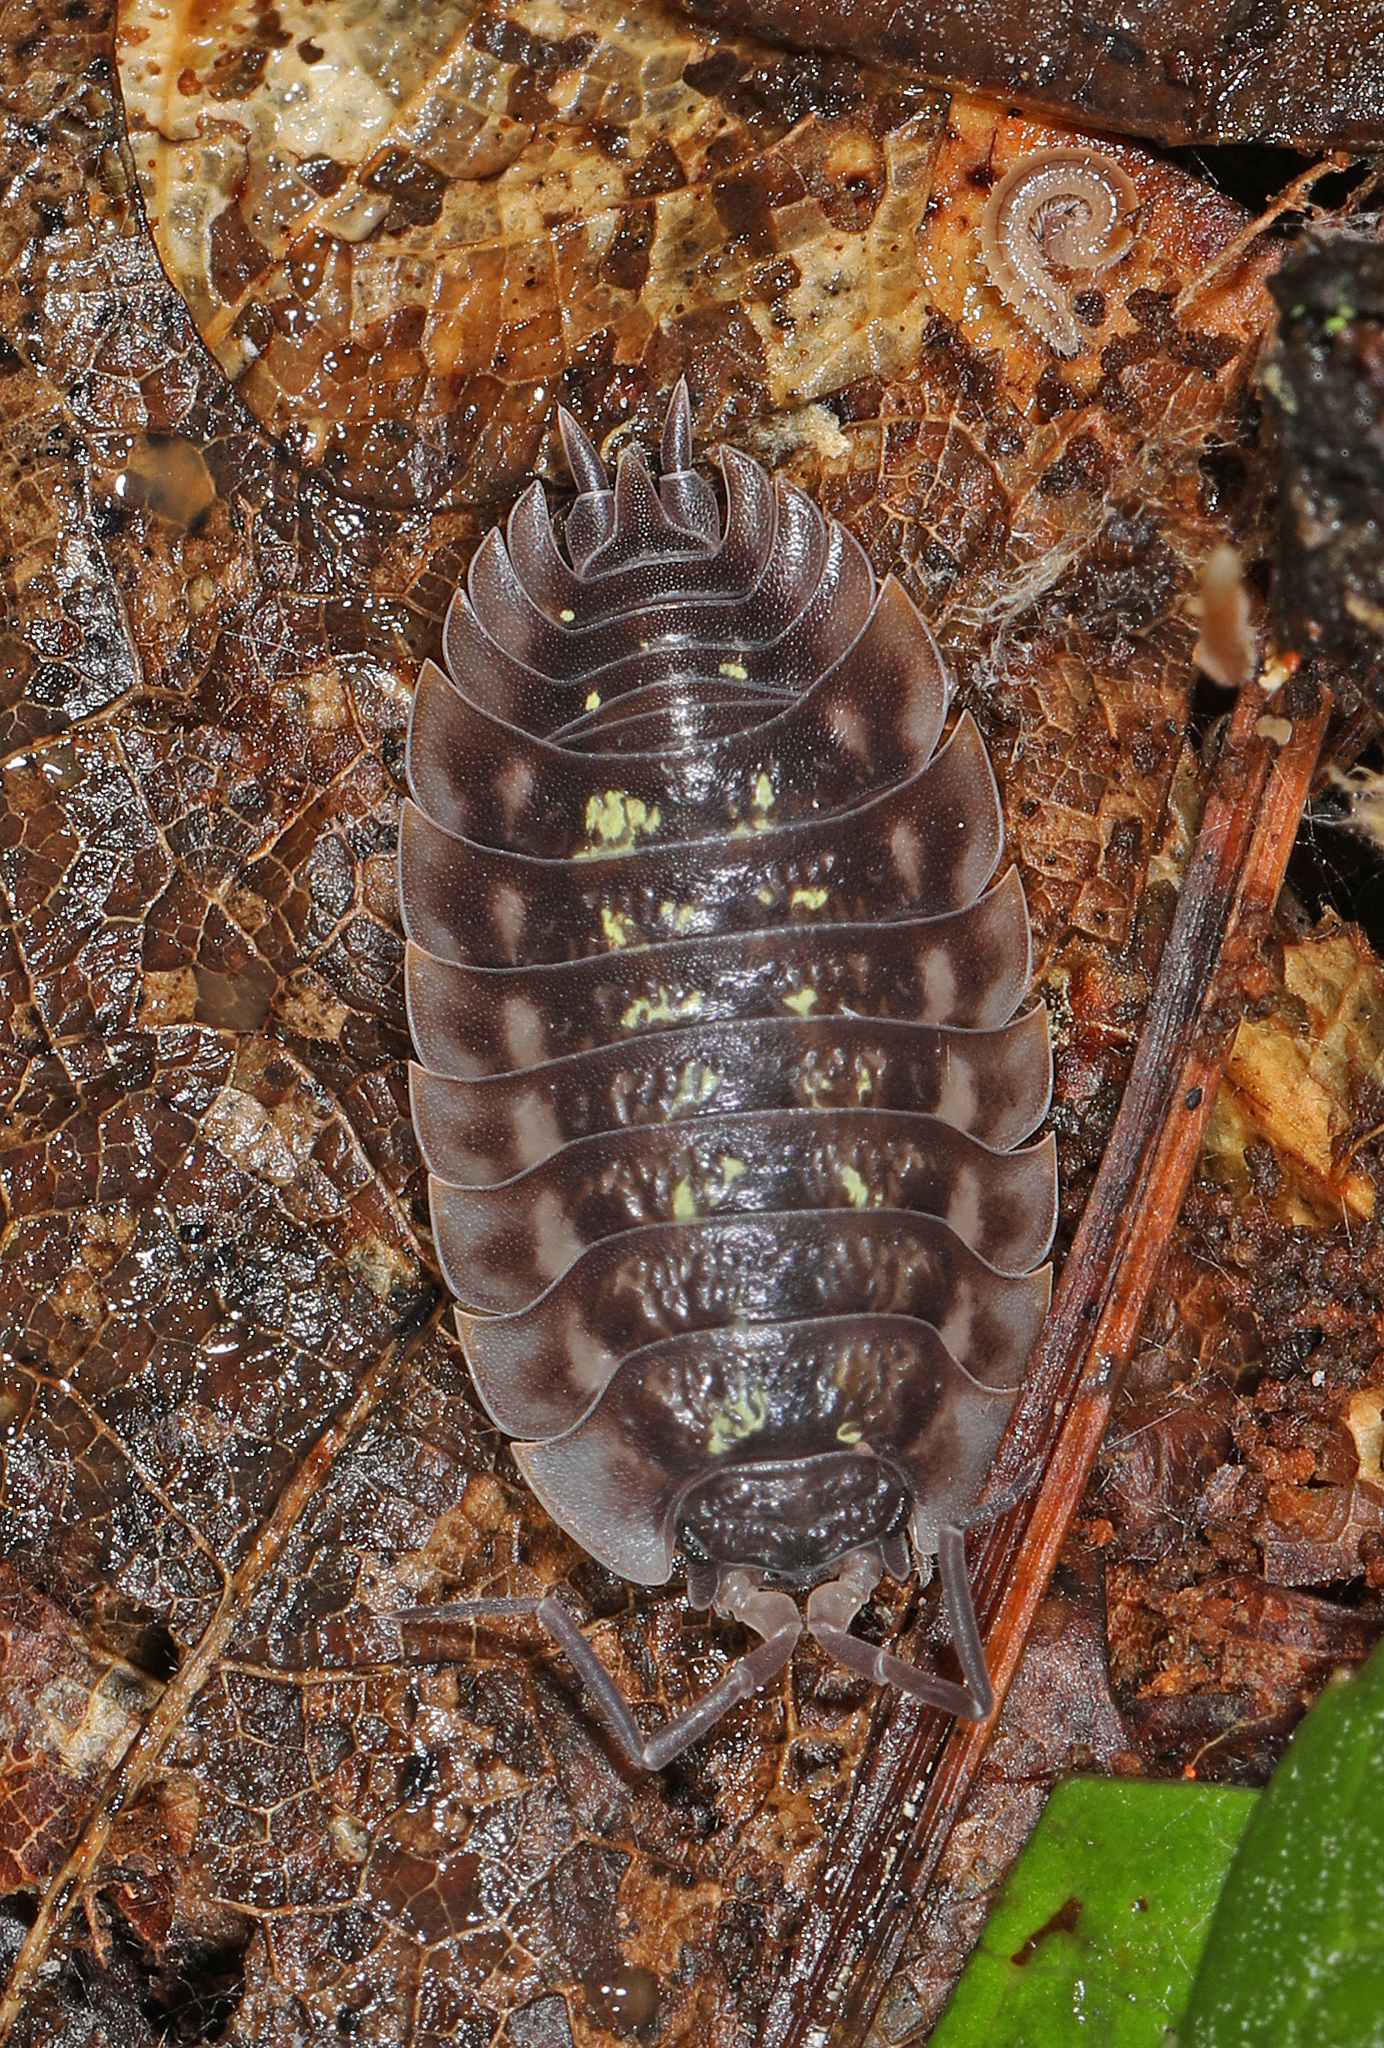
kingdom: Animalia
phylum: Arthropoda
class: Malacostraca
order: Isopoda
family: Oniscidae
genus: Oniscus
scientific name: Oniscus asellus
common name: Common shiny woodlouse
